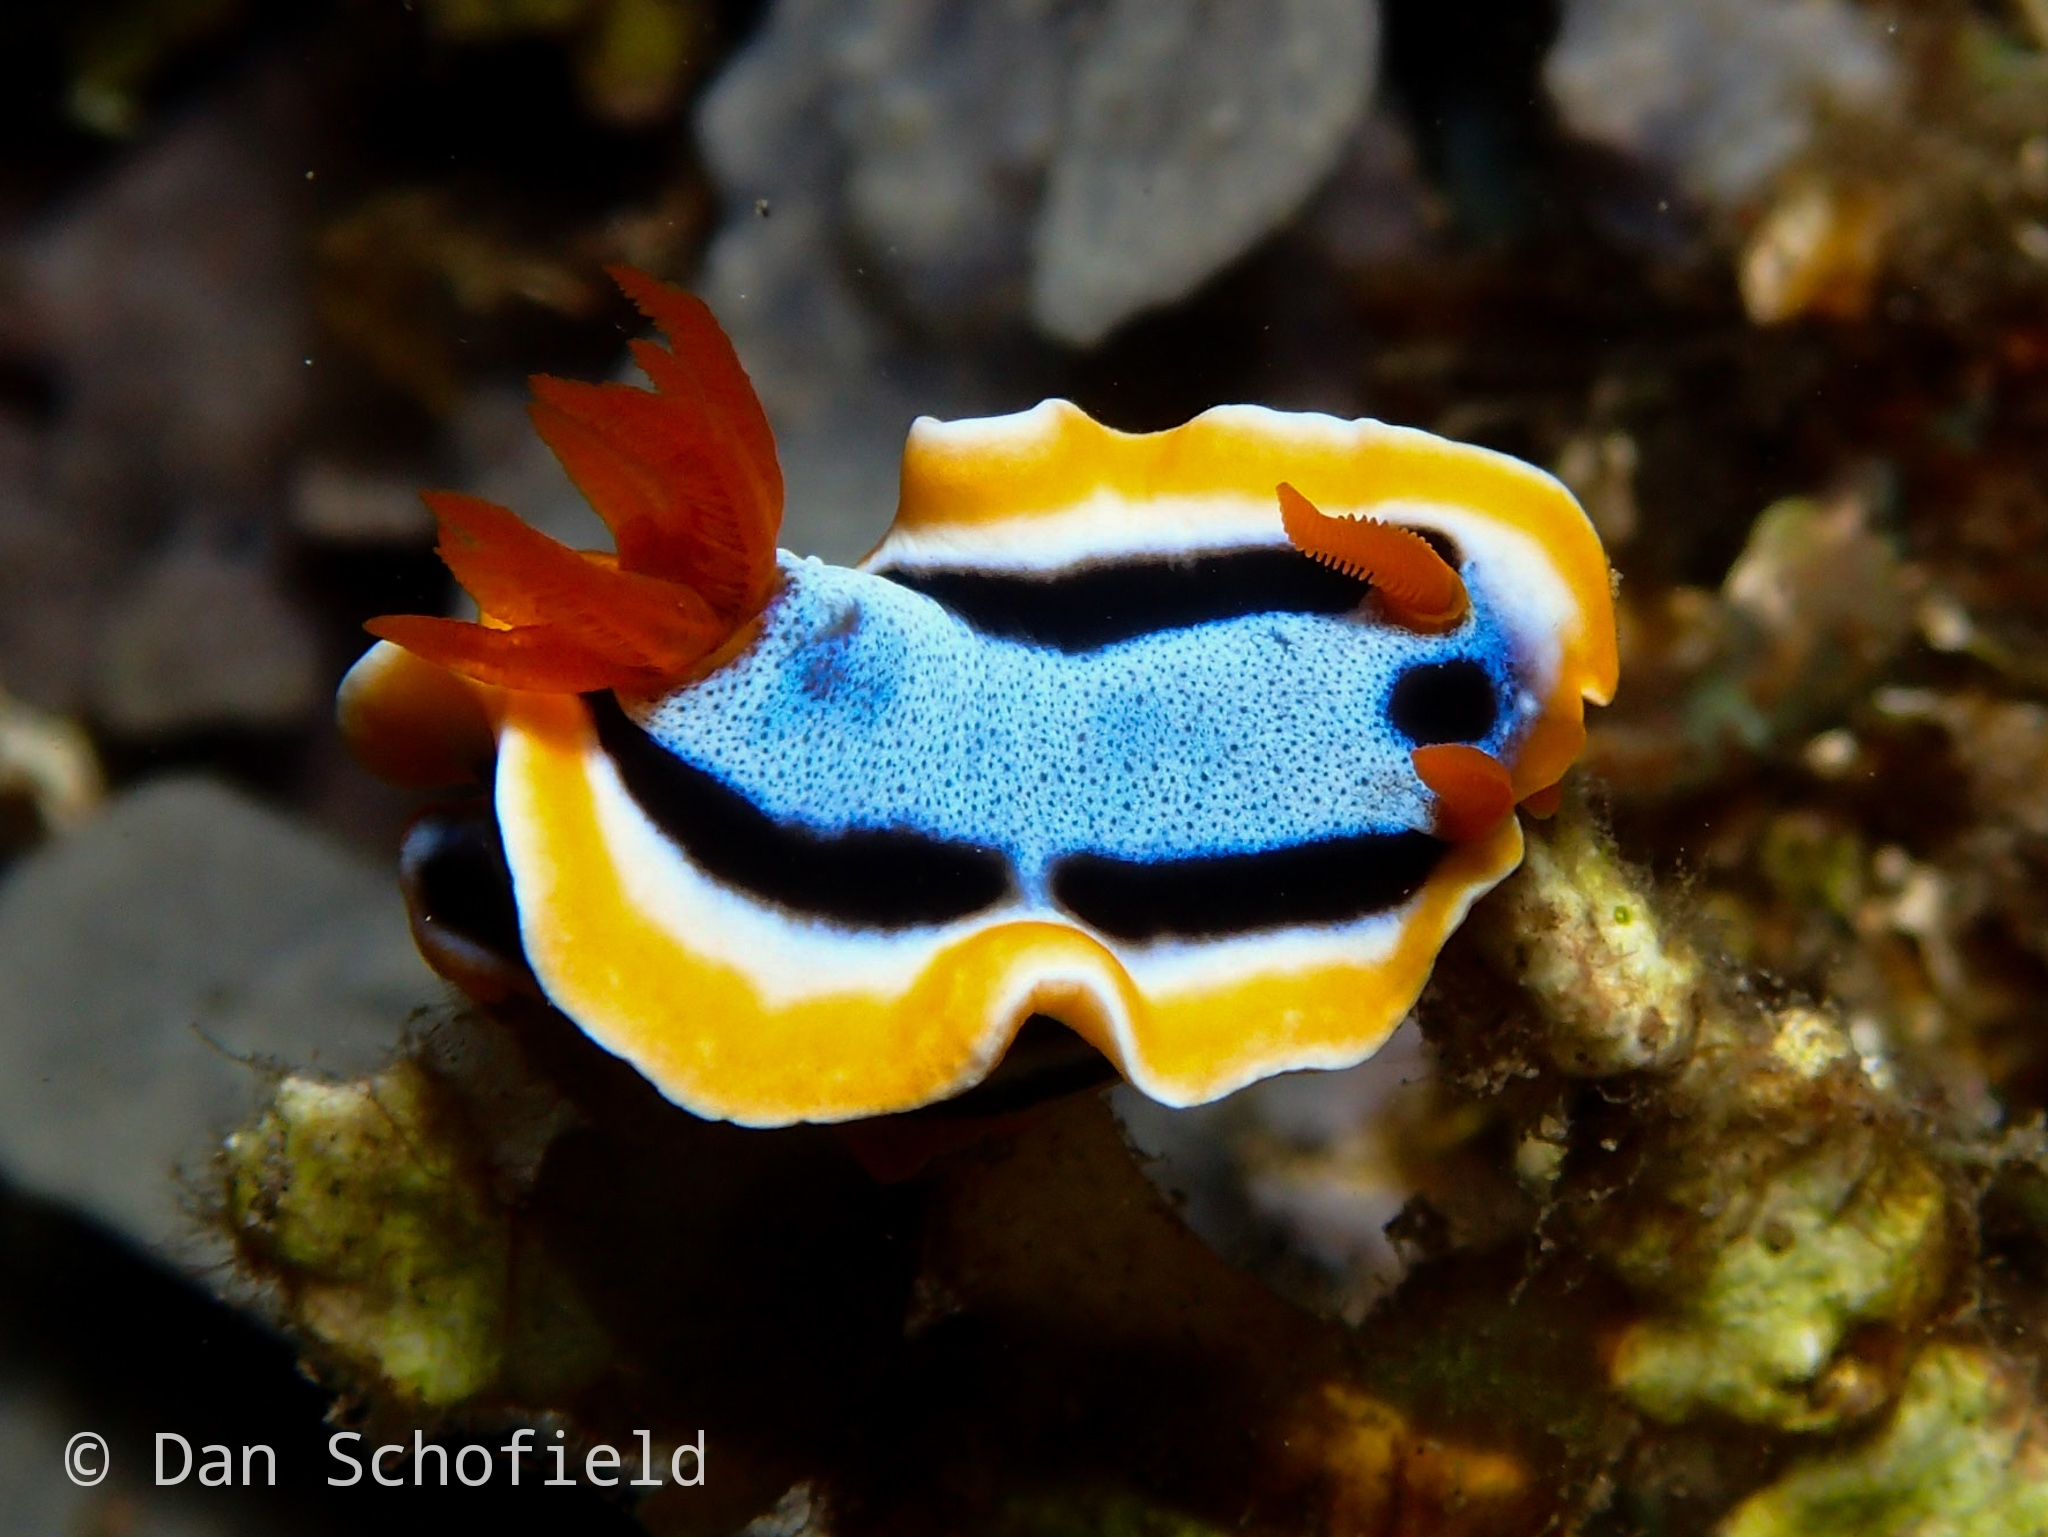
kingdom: Animalia
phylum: Mollusca
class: Gastropoda
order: Nudibranchia
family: Chromodorididae
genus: Chromodoris
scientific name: Chromodoris annae
